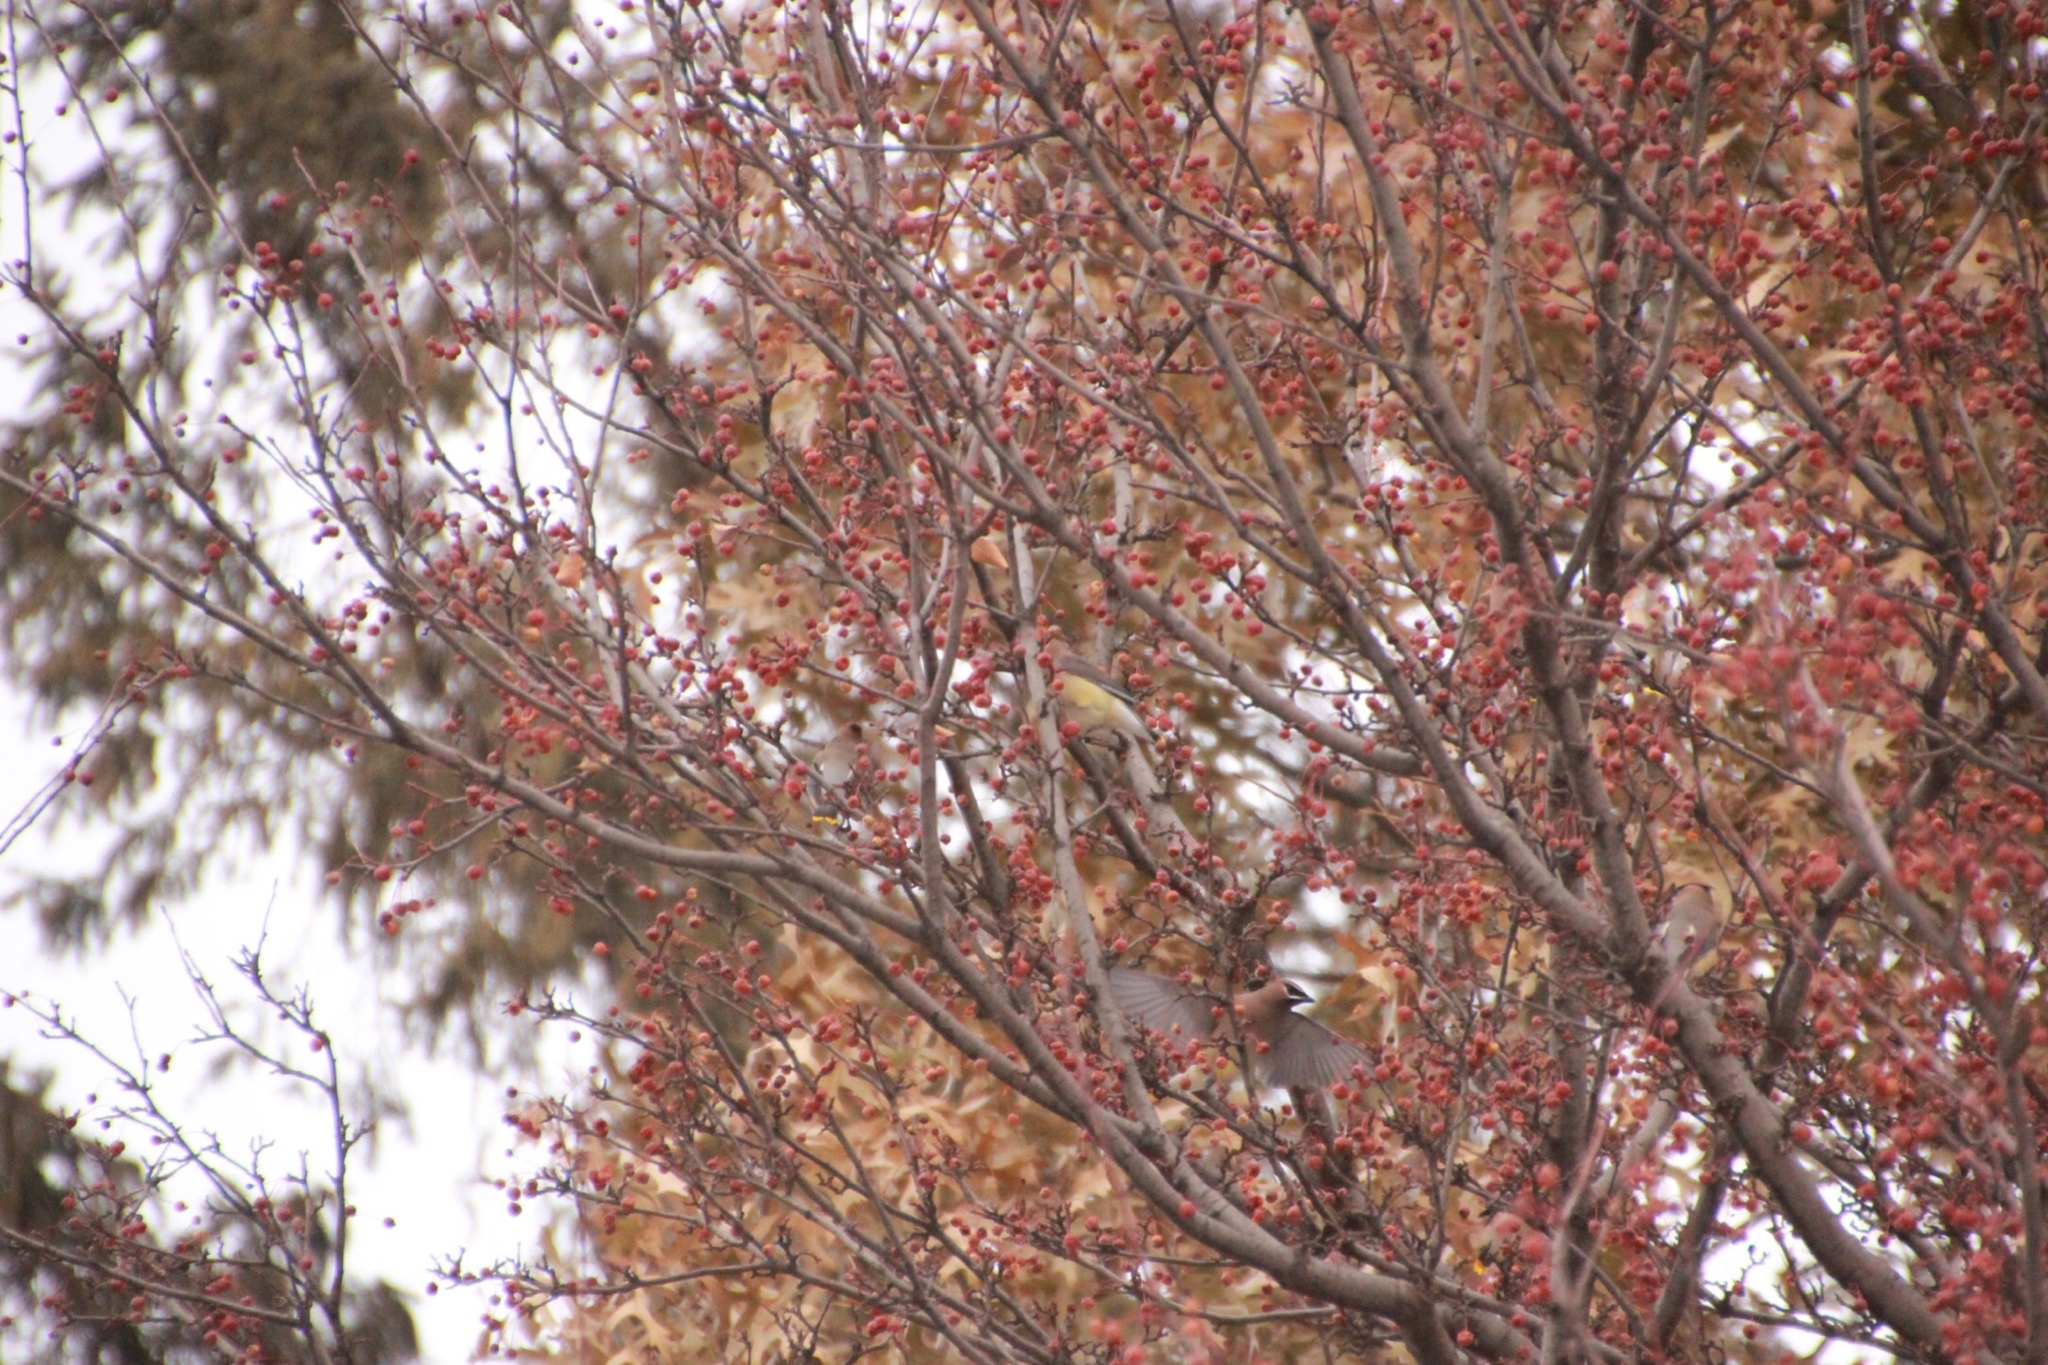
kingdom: Animalia
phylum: Chordata
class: Aves
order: Passeriformes
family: Bombycillidae
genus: Bombycilla
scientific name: Bombycilla cedrorum
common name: Cedar waxwing
